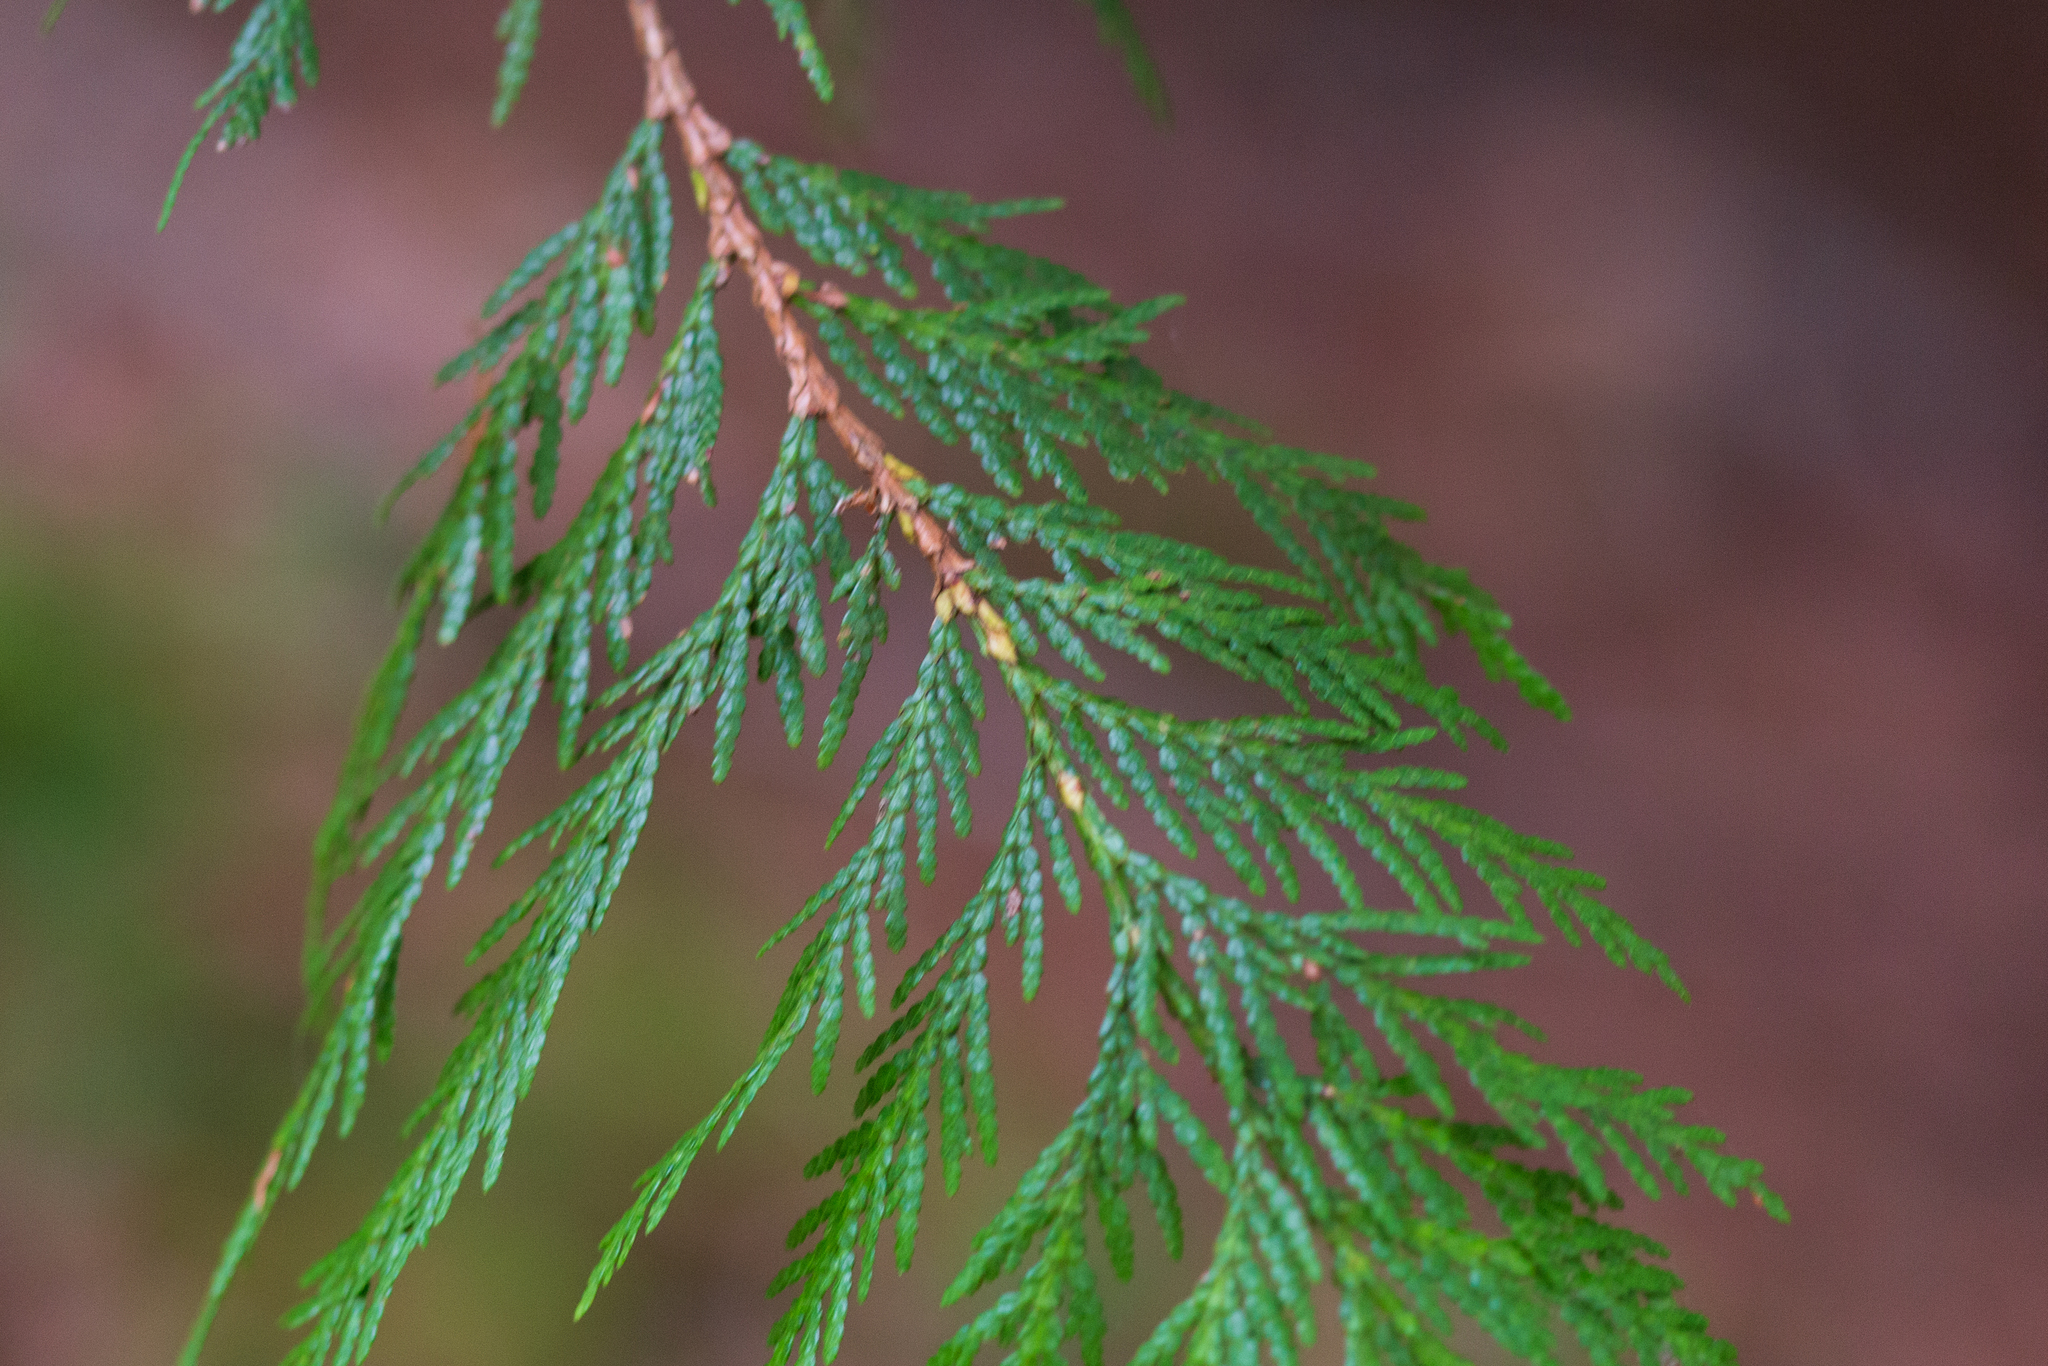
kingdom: Plantae
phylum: Tracheophyta
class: Pinopsida
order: Pinales
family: Cupressaceae
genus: Thuja
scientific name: Thuja plicata
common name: Western red-cedar
